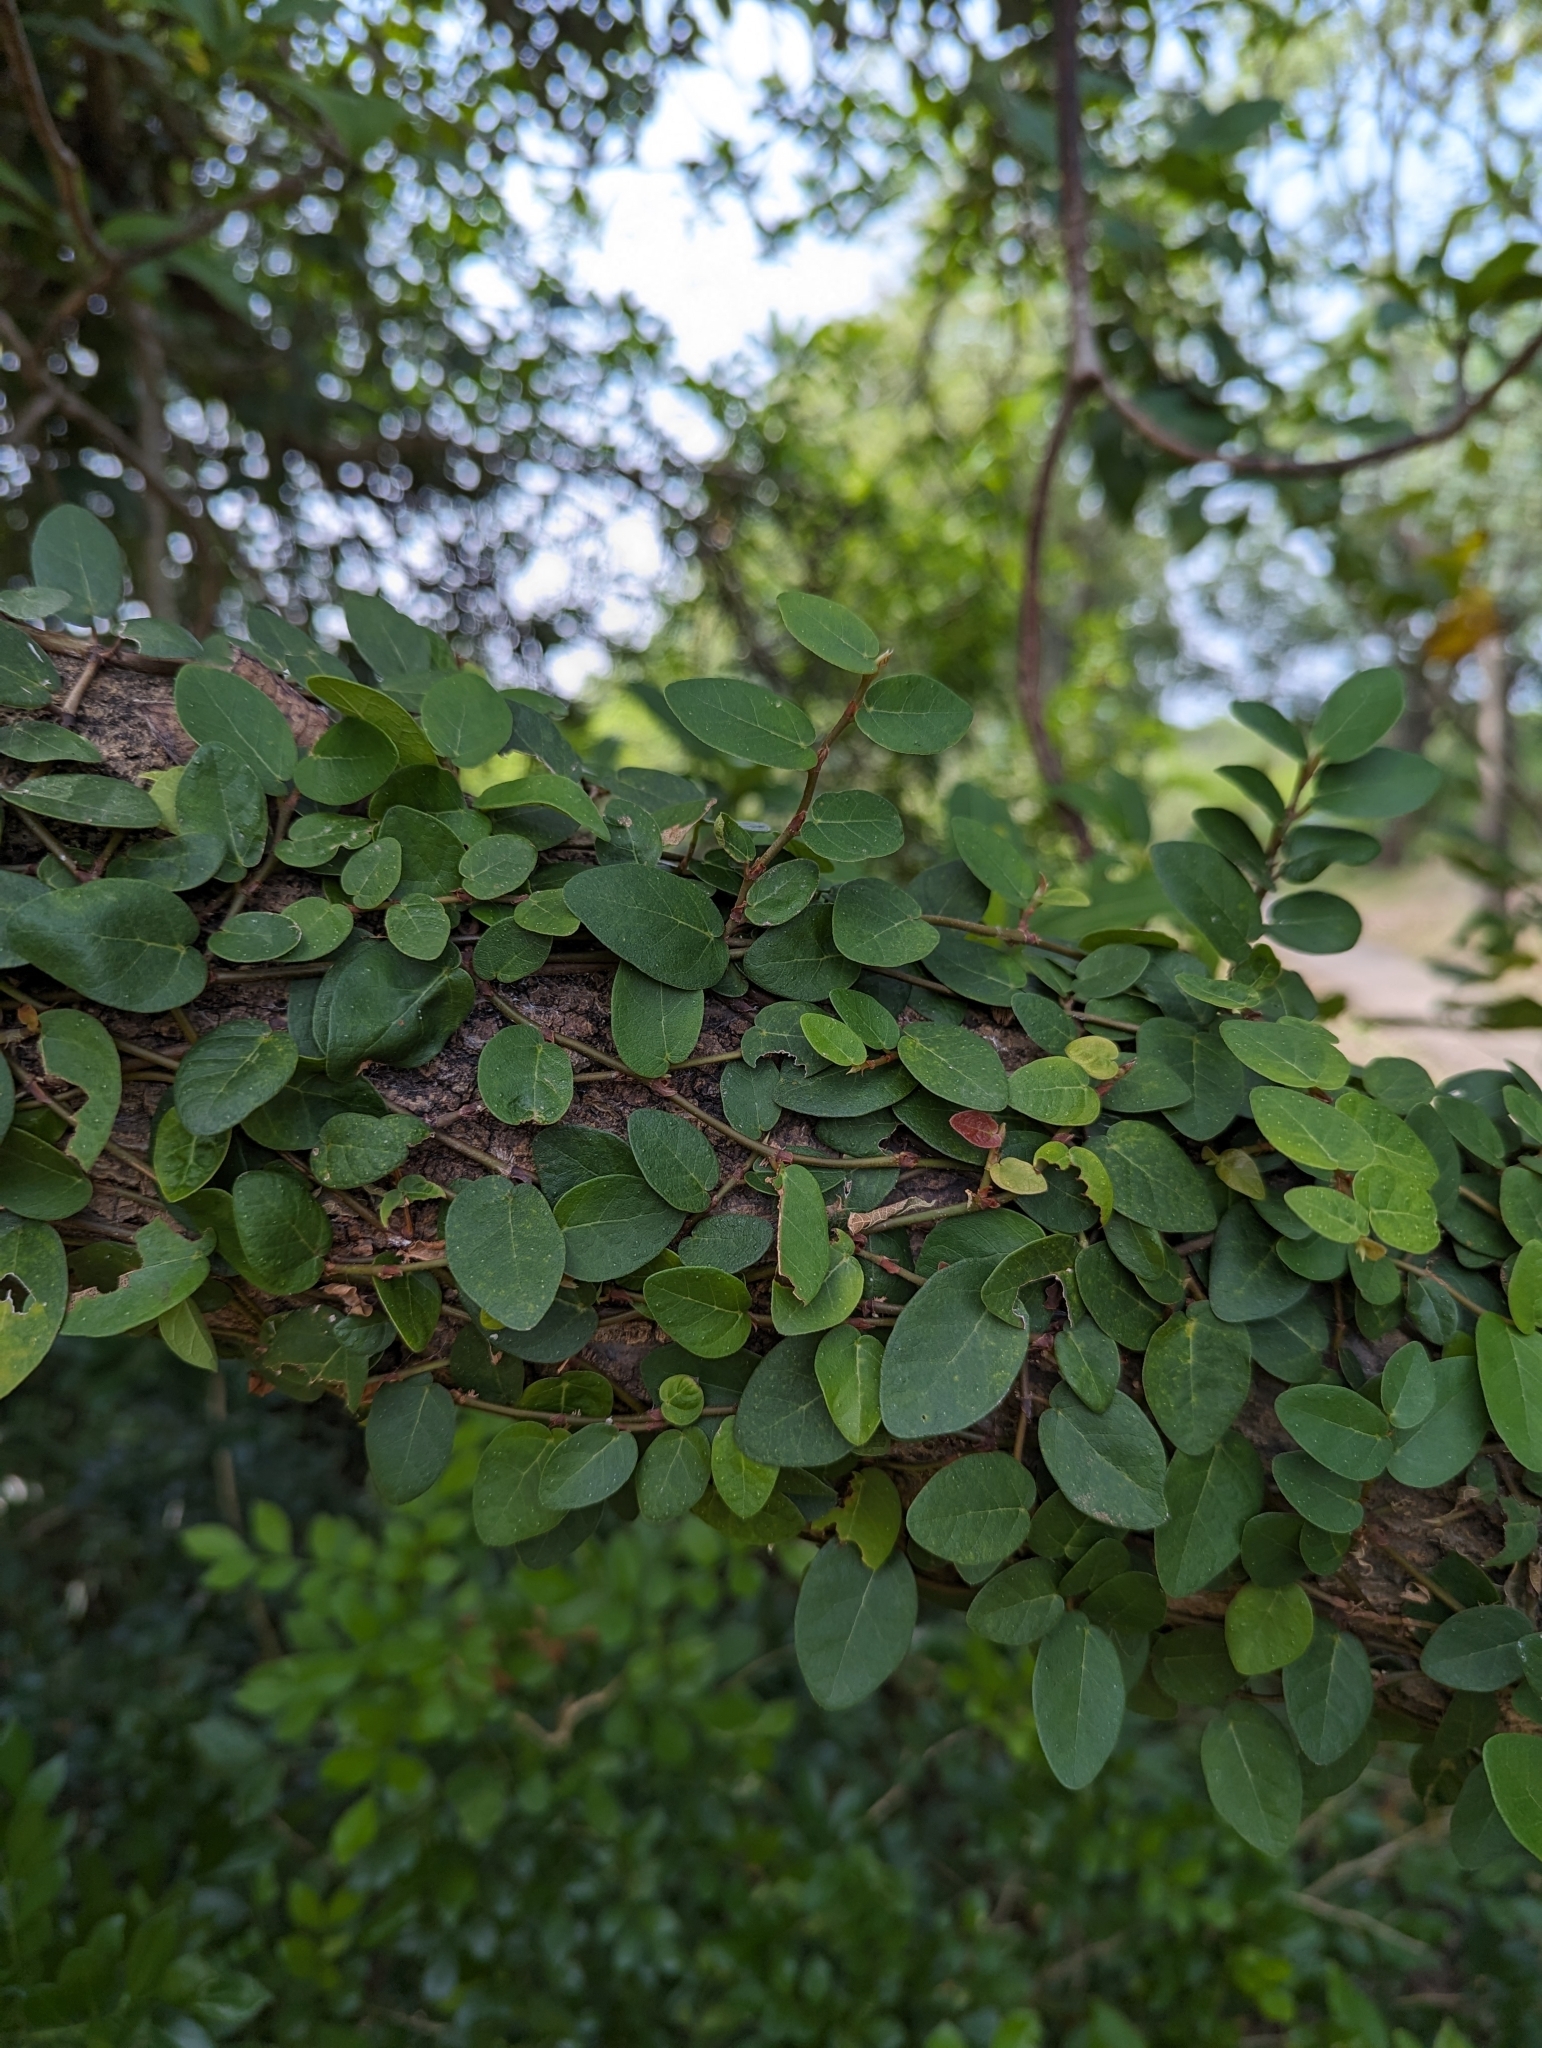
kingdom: Plantae
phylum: Tracheophyta
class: Magnoliopsida
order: Rosales
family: Moraceae
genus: Ficus
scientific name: Ficus pumila
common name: Climbingfig
